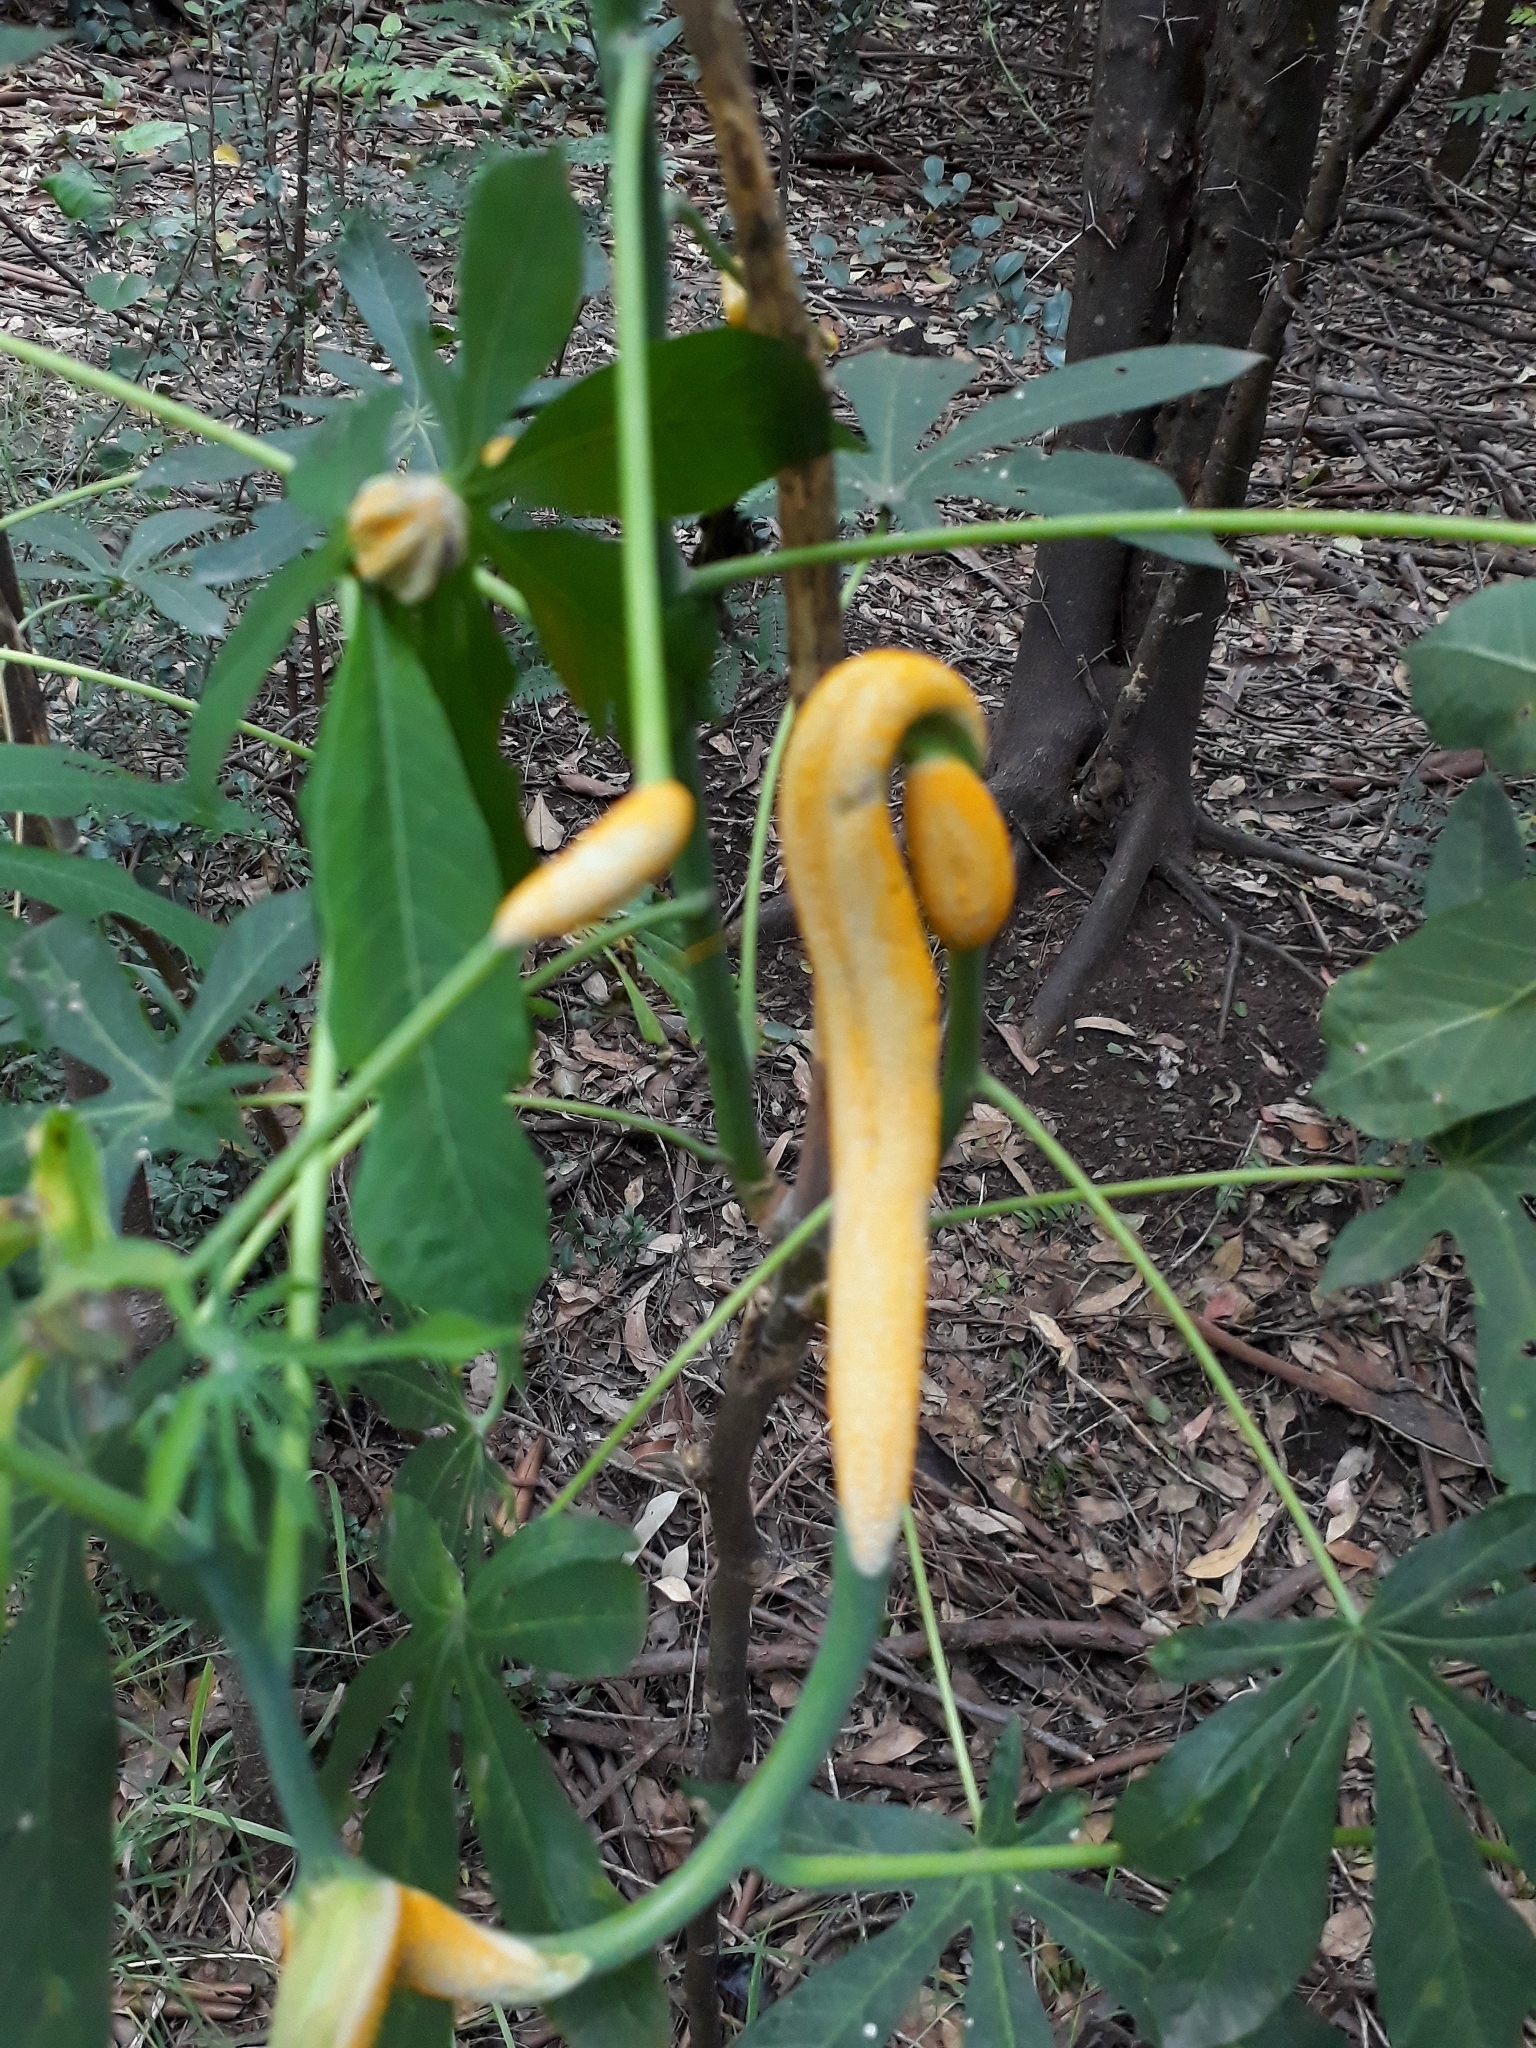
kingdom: Plantae
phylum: Tracheophyta
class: Magnoliopsida
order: Malpighiales
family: Euphorbiaceae
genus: Manihot
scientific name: Manihot grahamii
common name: Graham's manihot
